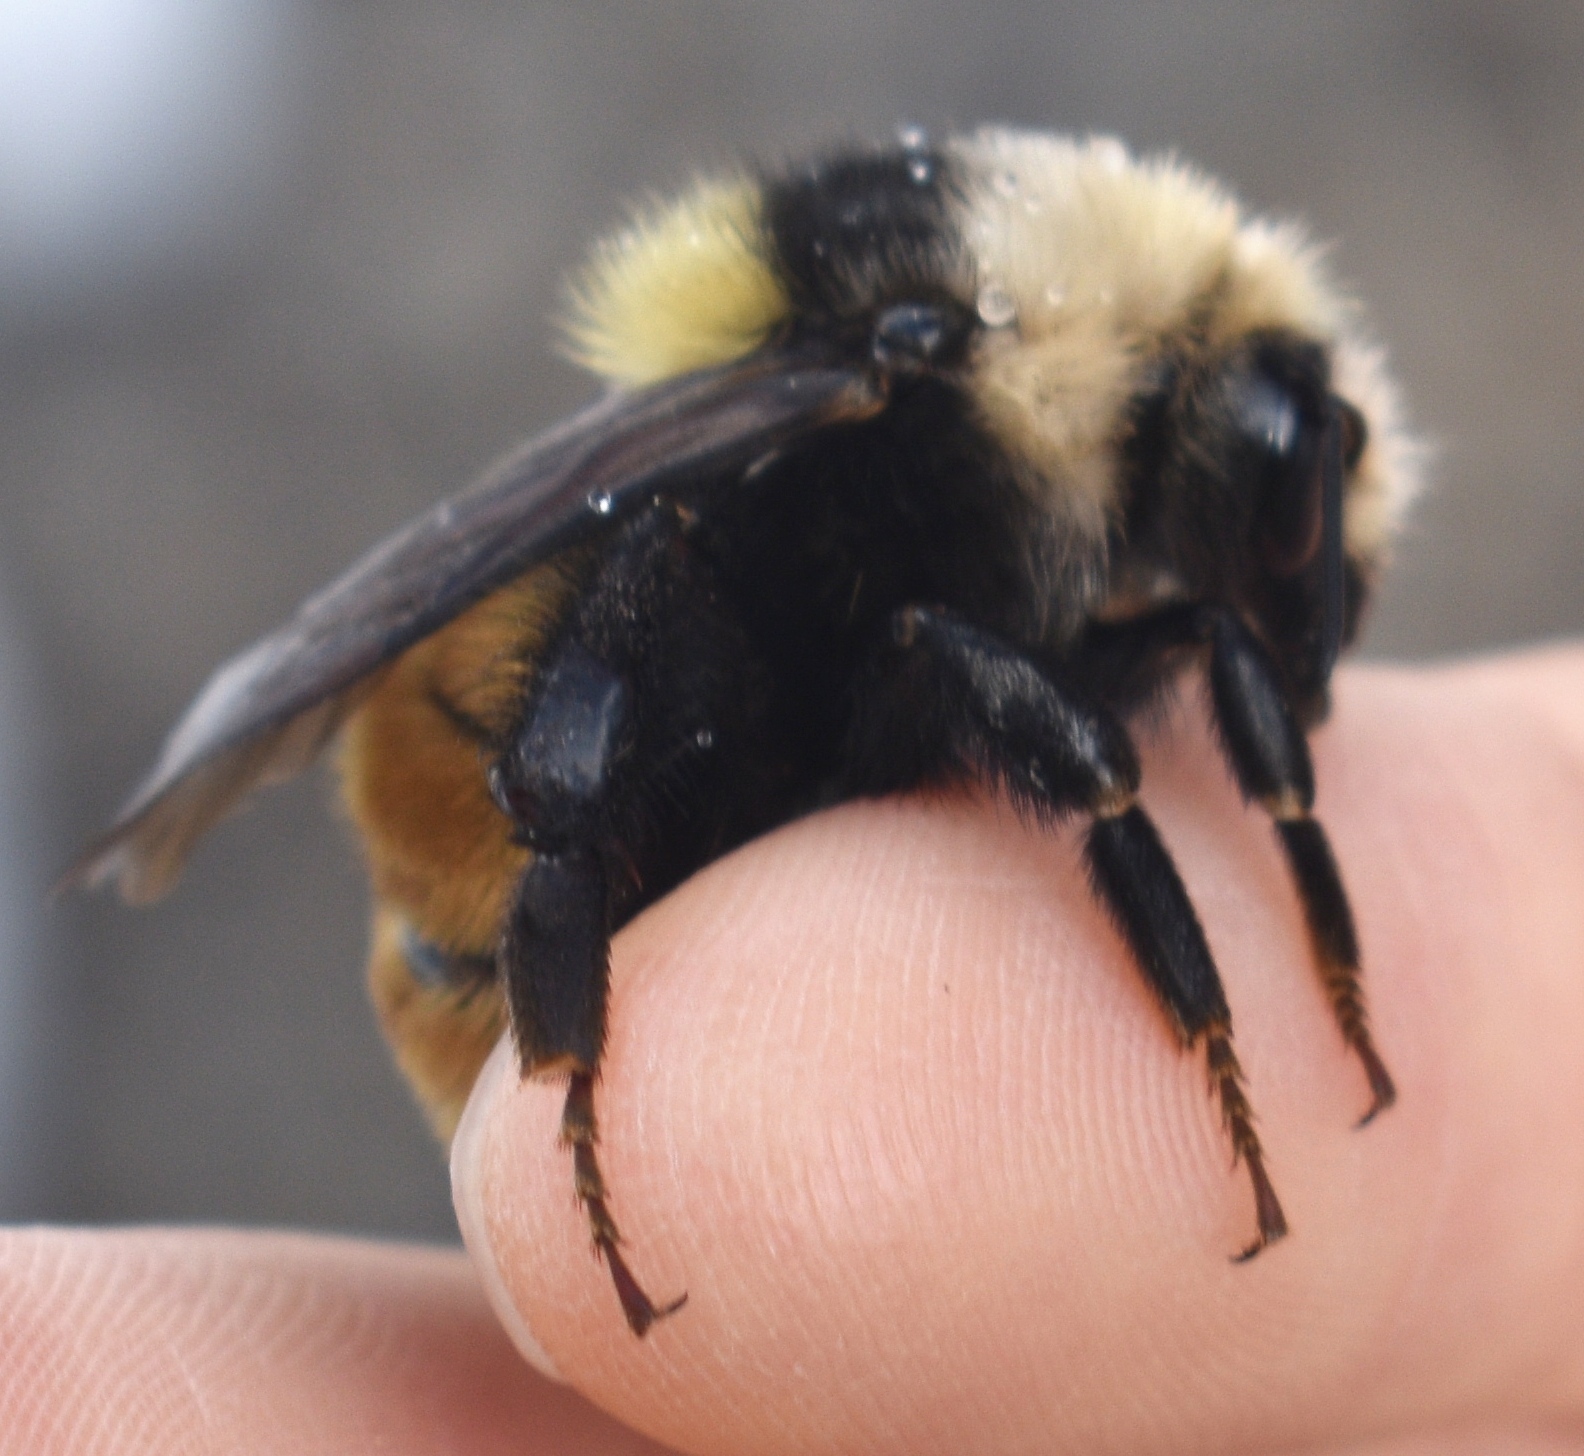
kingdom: Animalia
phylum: Arthropoda
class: Insecta
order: Hymenoptera
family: Apidae
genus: Bombus
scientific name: Bombus appositus
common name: White-shouldered bumble bee
